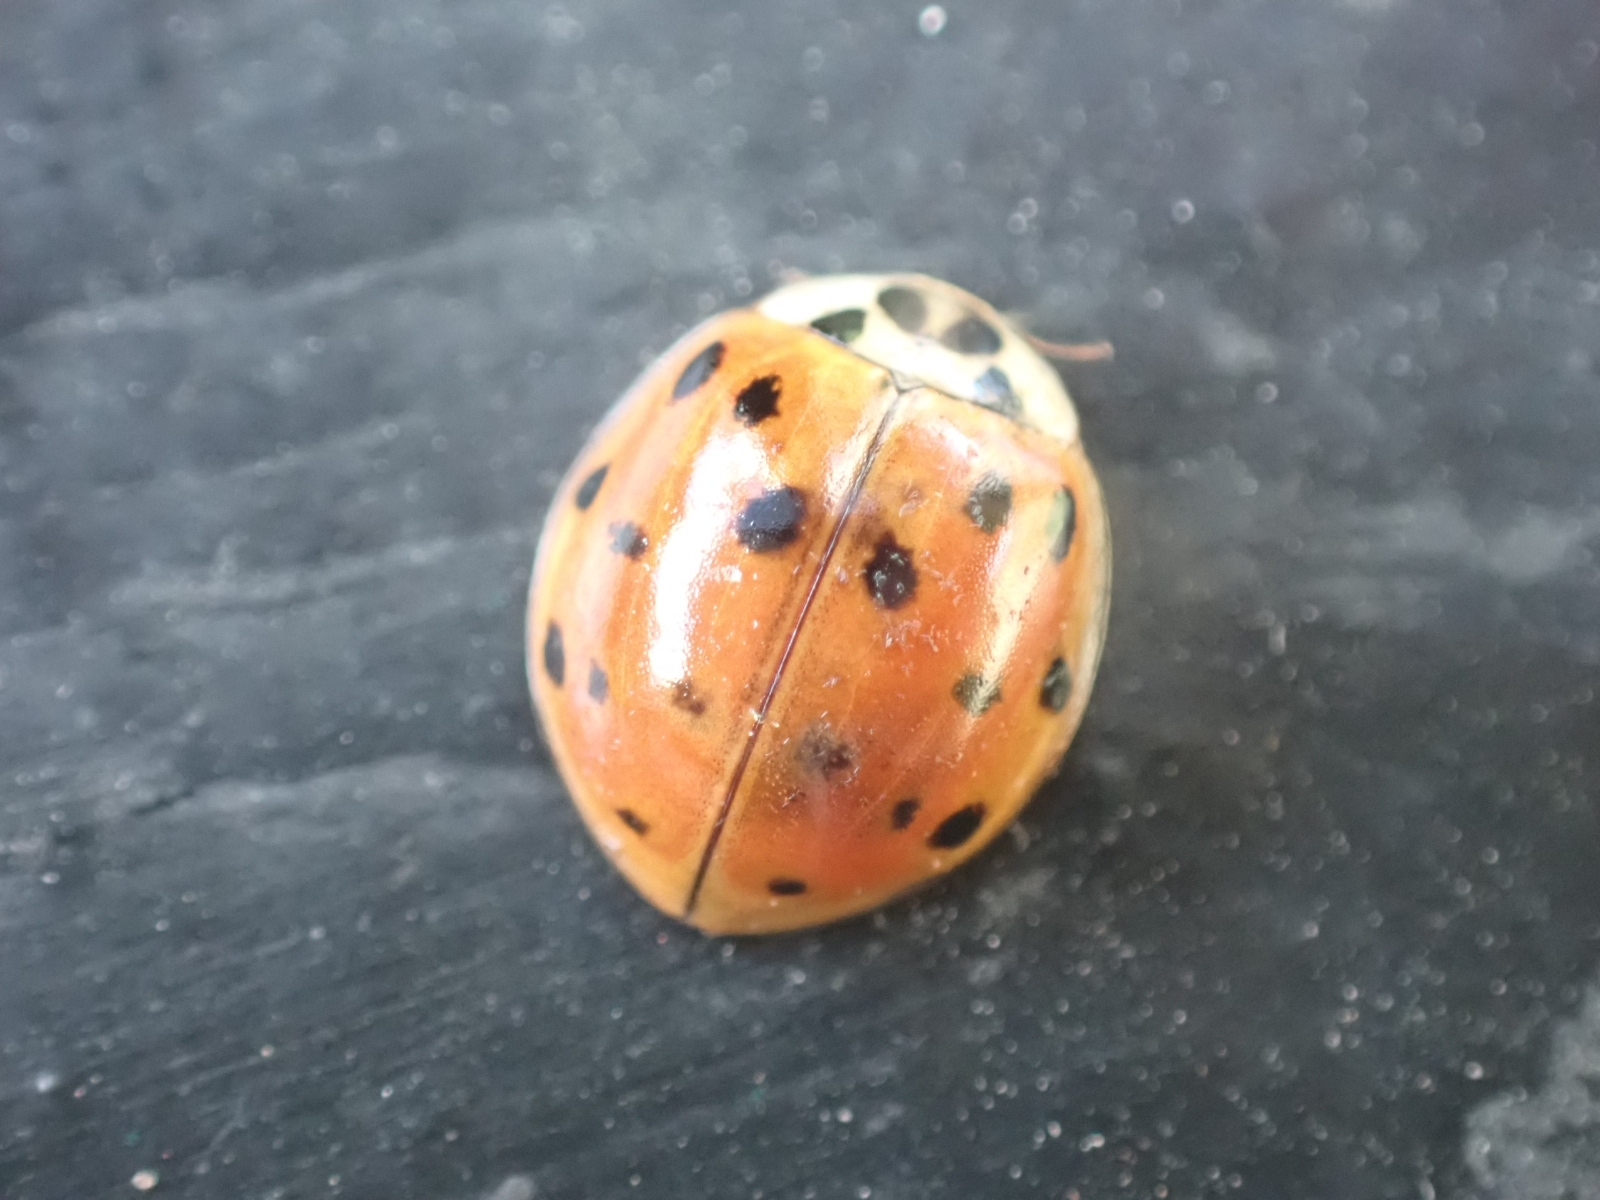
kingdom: Animalia
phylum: Arthropoda
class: Insecta
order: Coleoptera
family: Coccinellidae
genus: Harmonia
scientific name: Harmonia axyridis
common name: Harlequin ladybird
